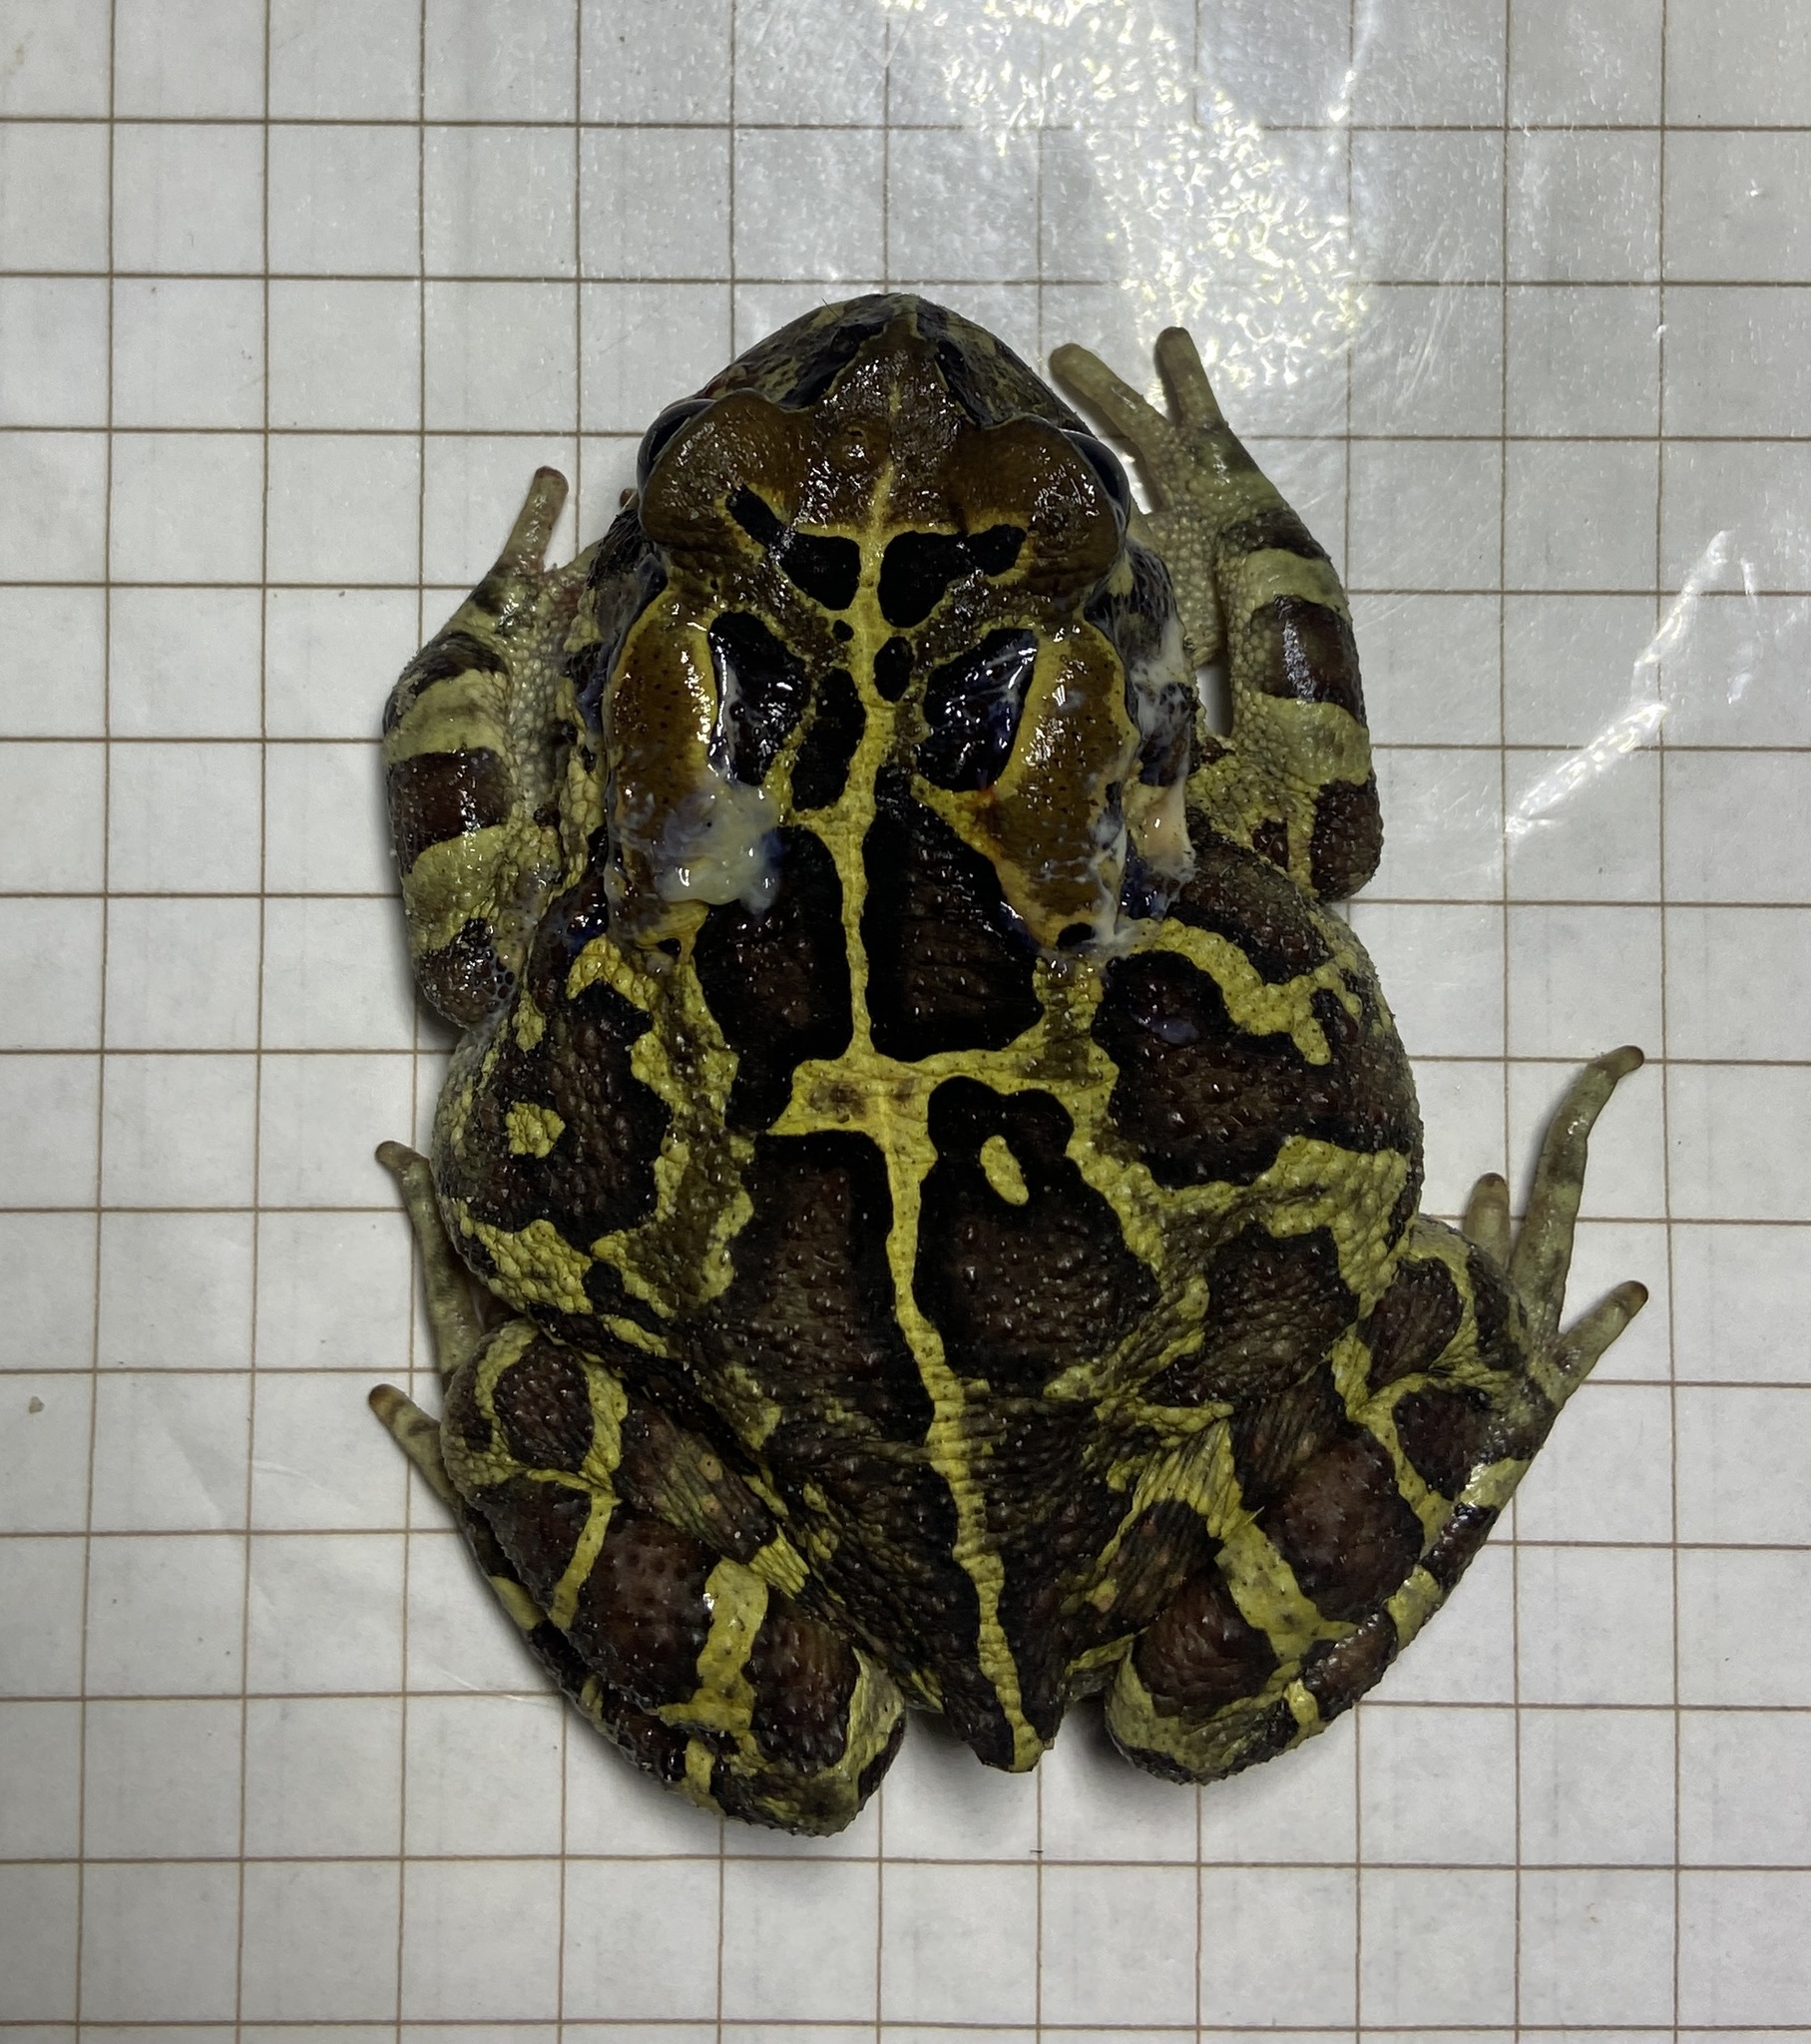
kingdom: Animalia
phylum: Chordata
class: Amphibia
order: Anura
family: Bufonidae
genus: Sclerophrys
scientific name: Sclerophrys pantherina
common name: Panther toad
